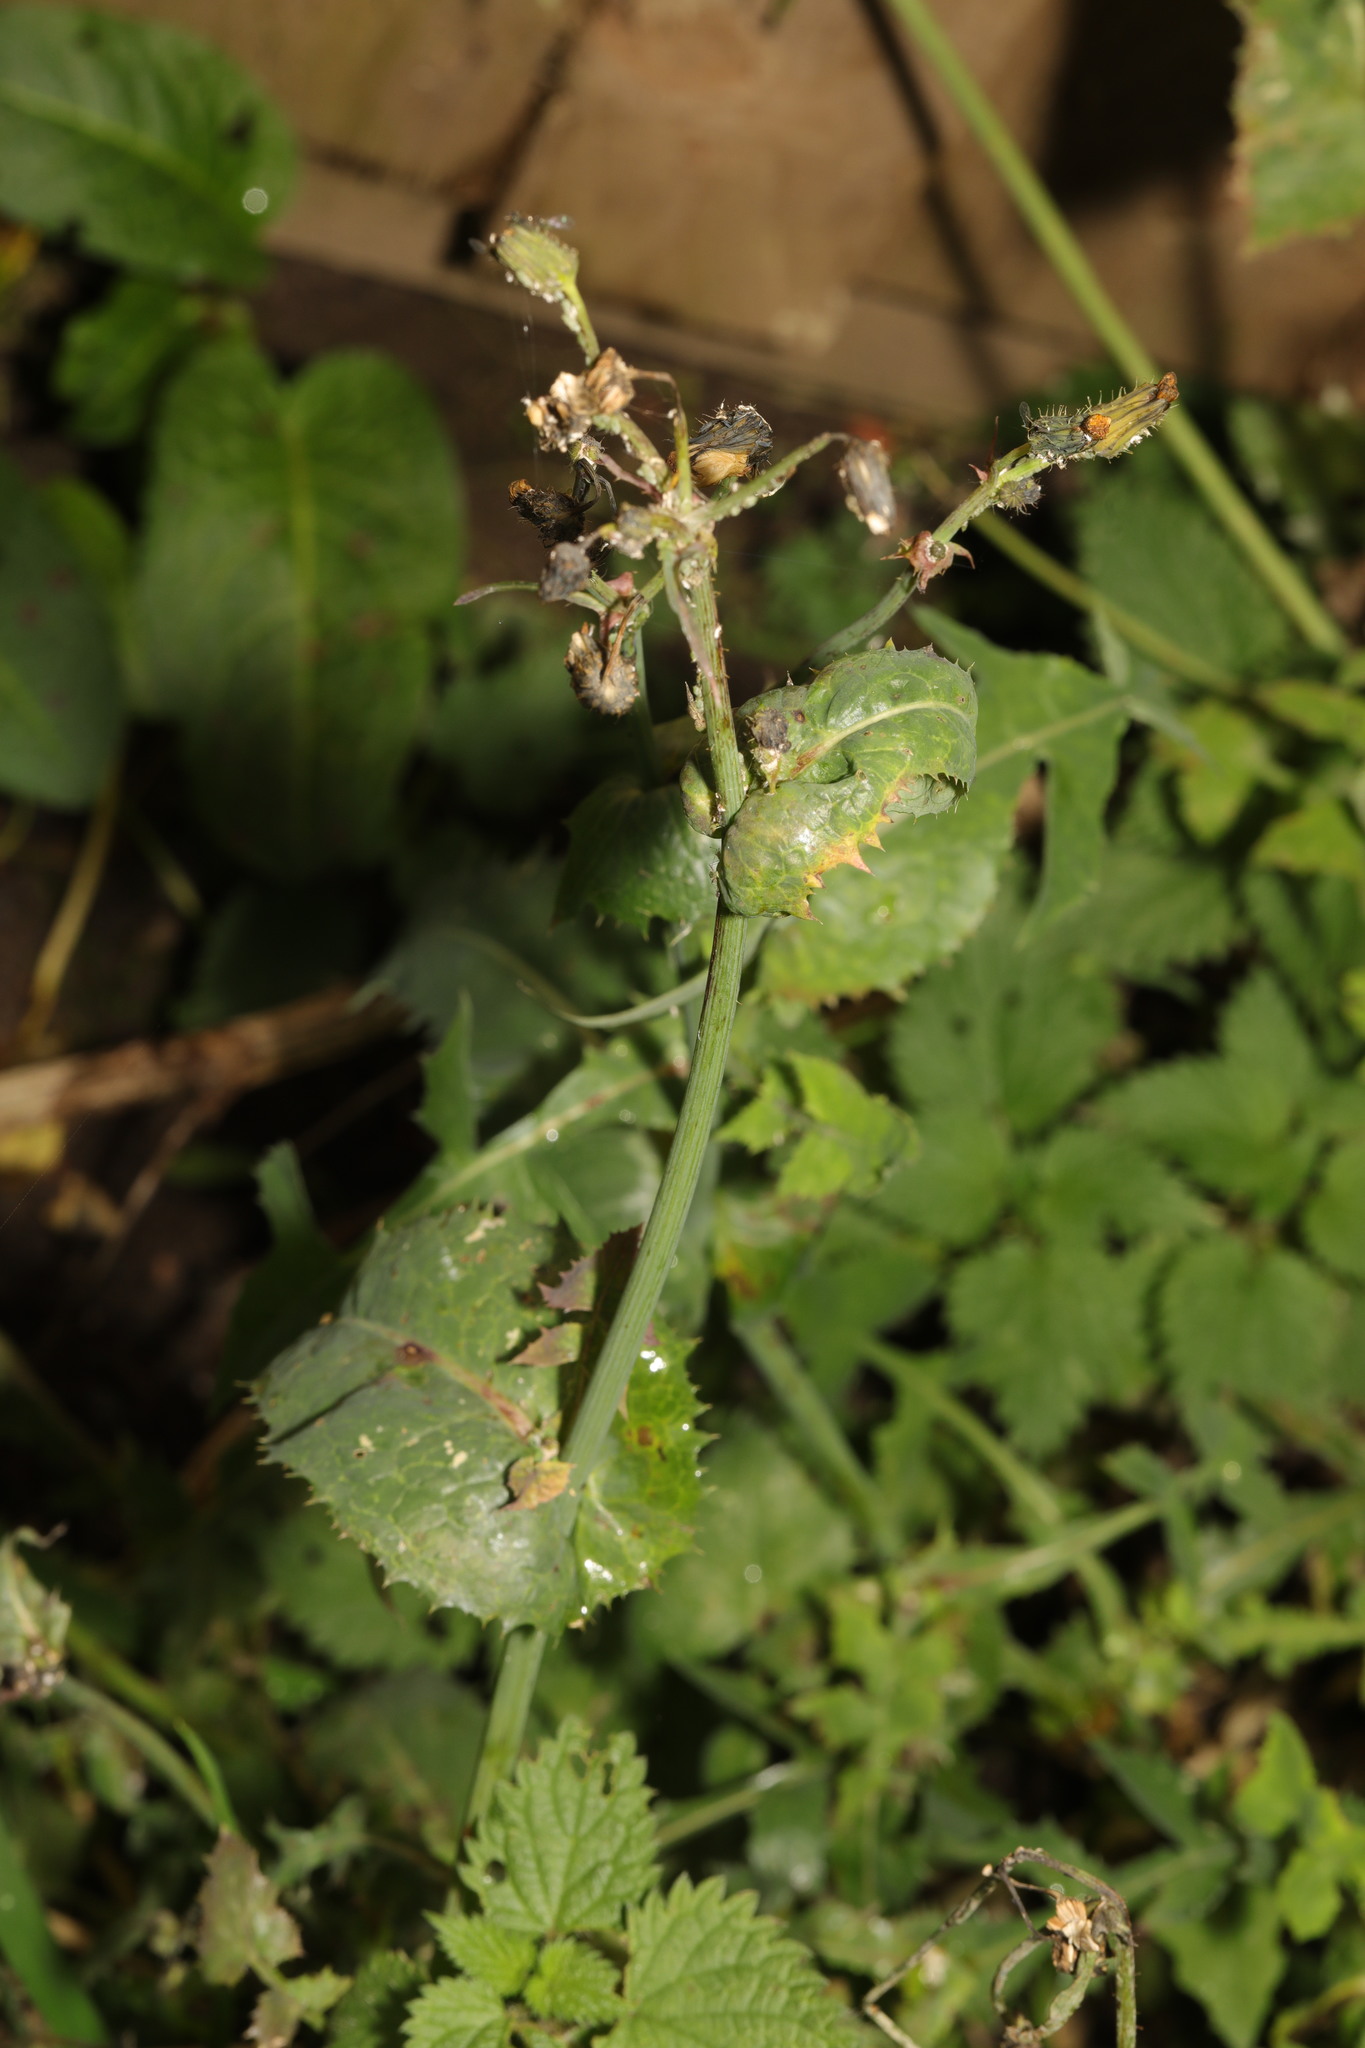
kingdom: Plantae
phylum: Tracheophyta
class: Magnoliopsida
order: Asterales
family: Asteraceae
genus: Sonchus
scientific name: Sonchus oleraceus
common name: Common sowthistle
